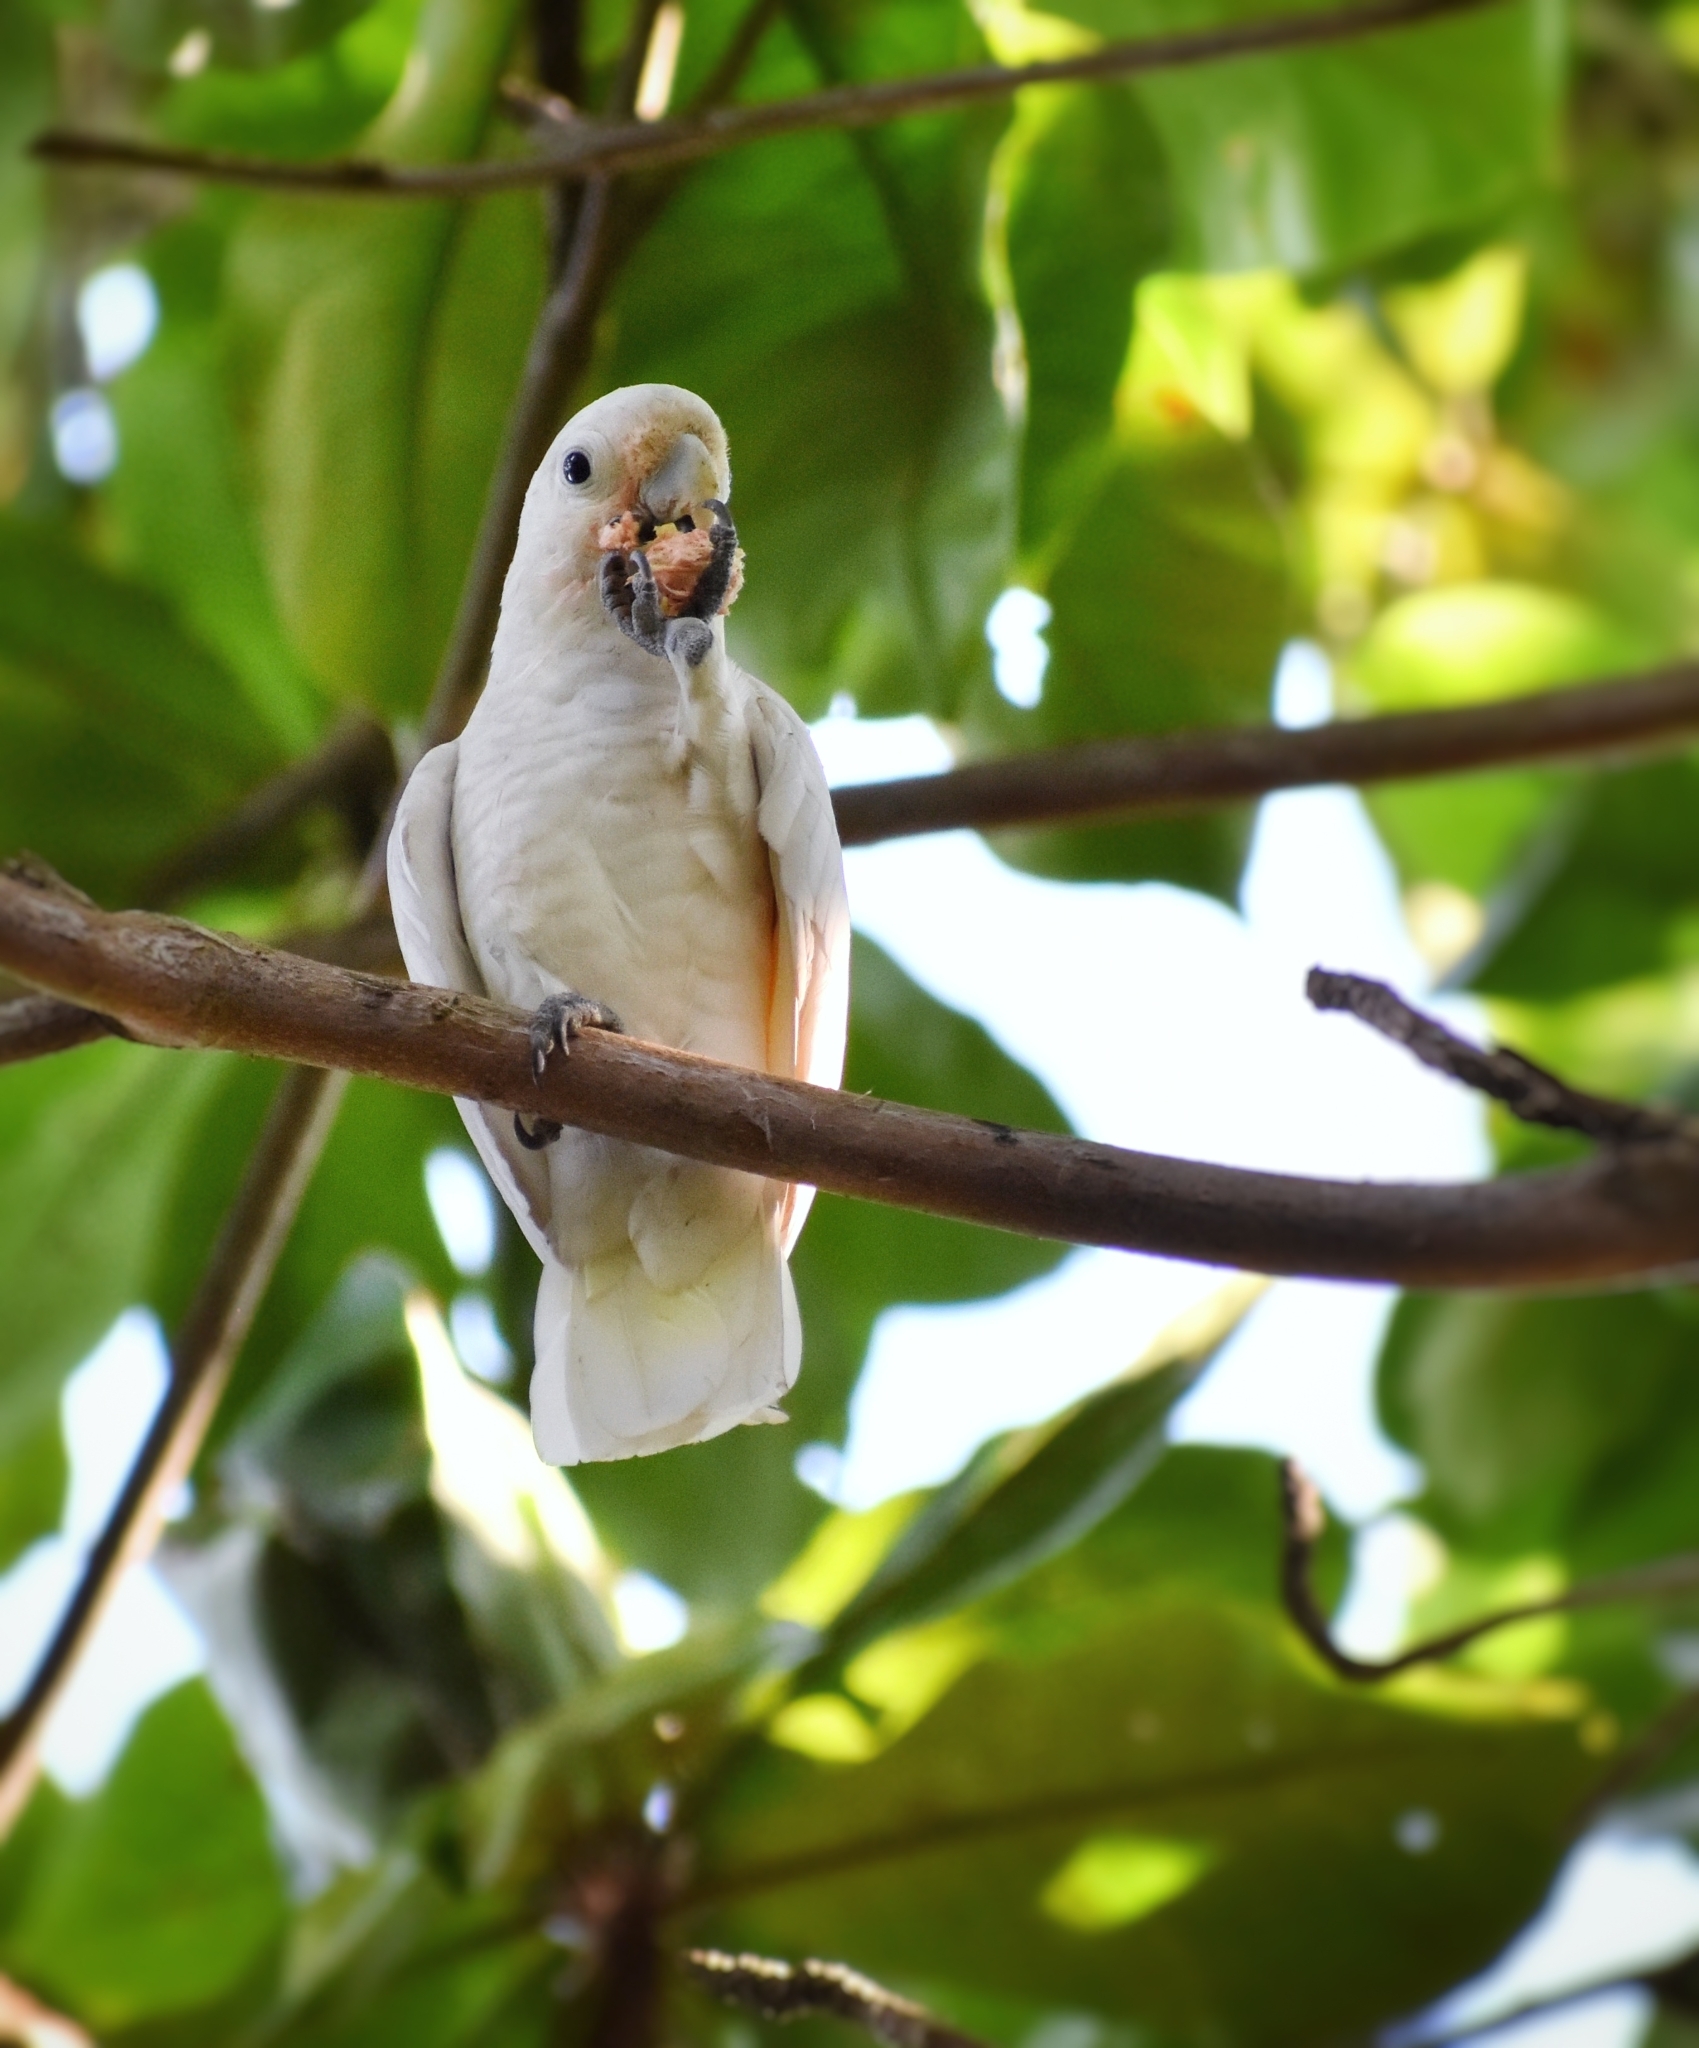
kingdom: Animalia
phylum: Chordata
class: Aves
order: Psittaciformes
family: Psittacidae
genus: Cacatua
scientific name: Cacatua goffiniana
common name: Tanimbar corella
